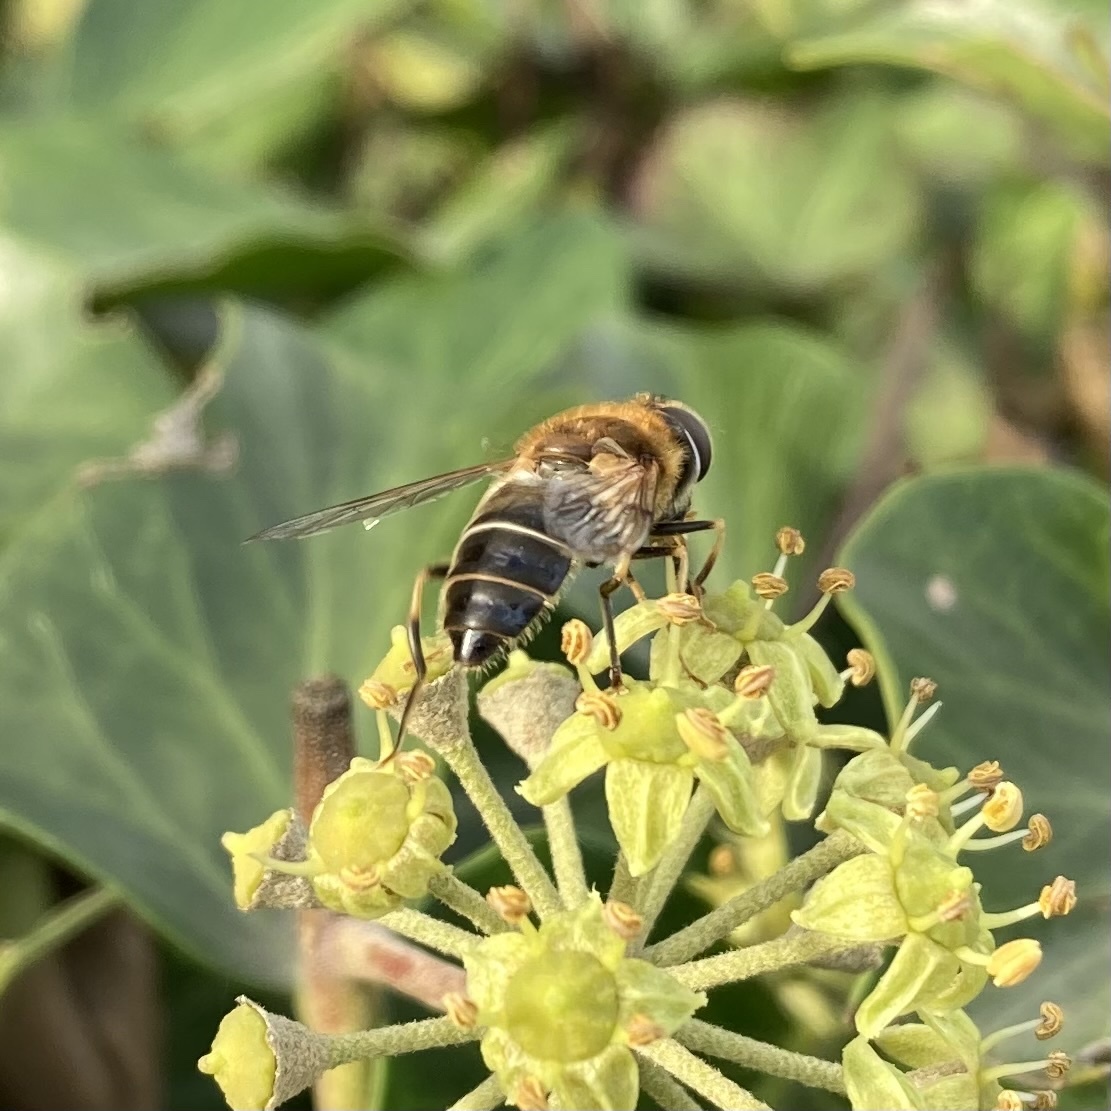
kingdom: Animalia
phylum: Arthropoda
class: Insecta
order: Diptera
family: Syrphidae
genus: Eristalis
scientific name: Eristalis pertinax
